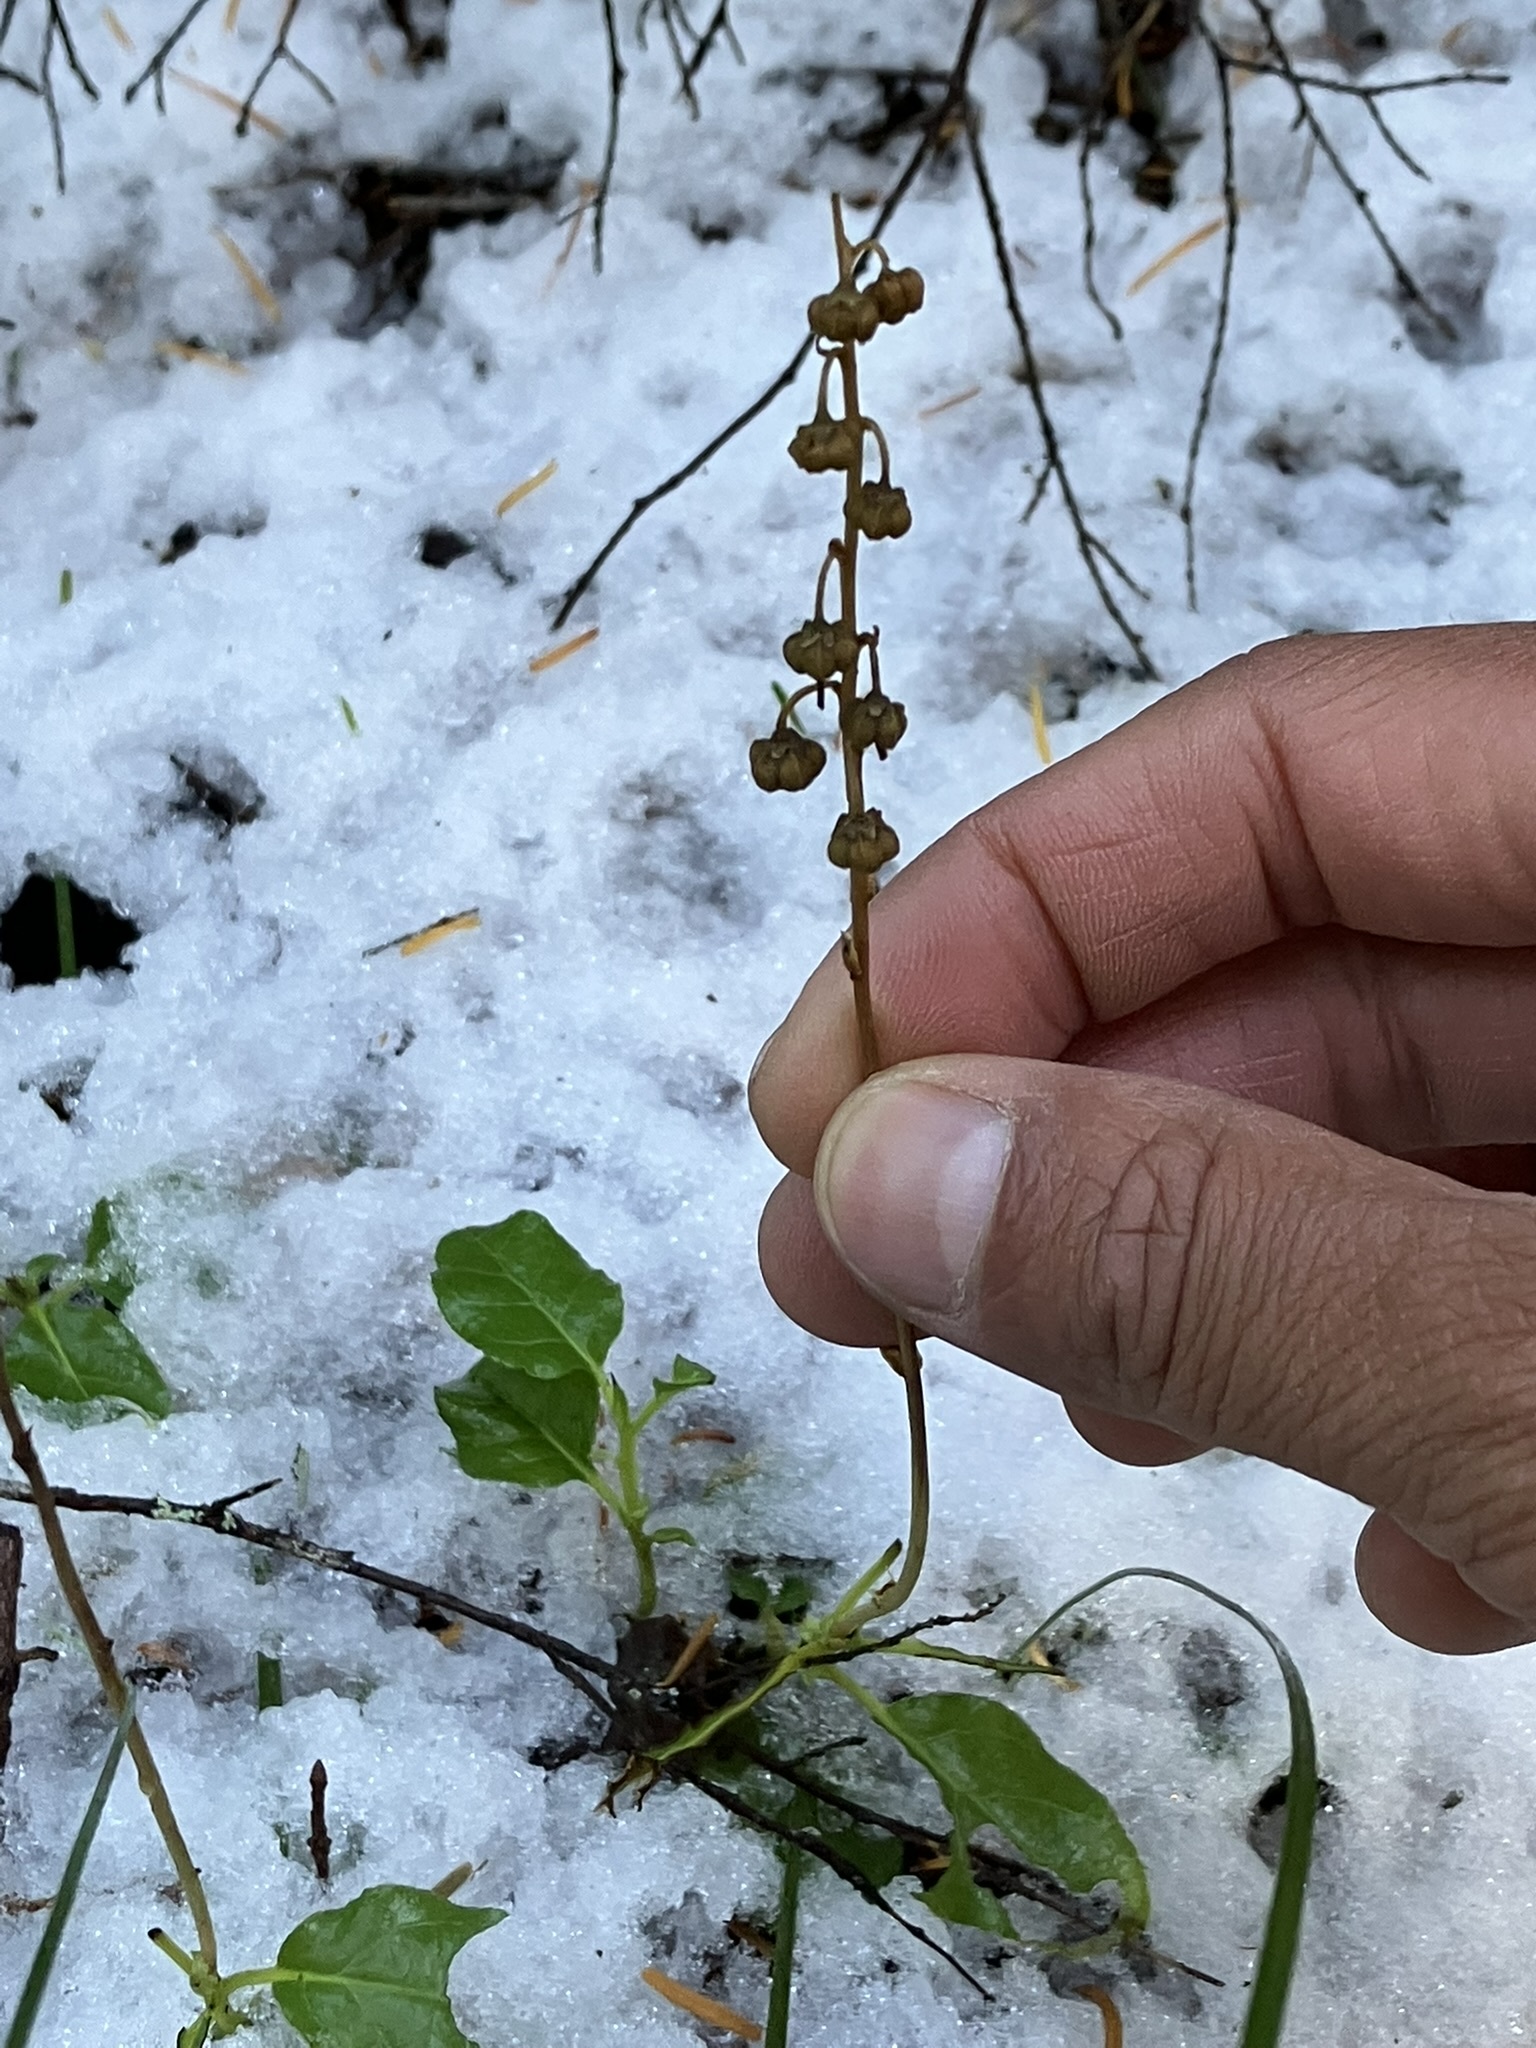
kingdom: Plantae
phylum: Tracheophyta
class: Magnoliopsida
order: Ericales
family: Ericaceae
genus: Orthilia
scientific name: Orthilia secunda
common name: One-sided orthilia
